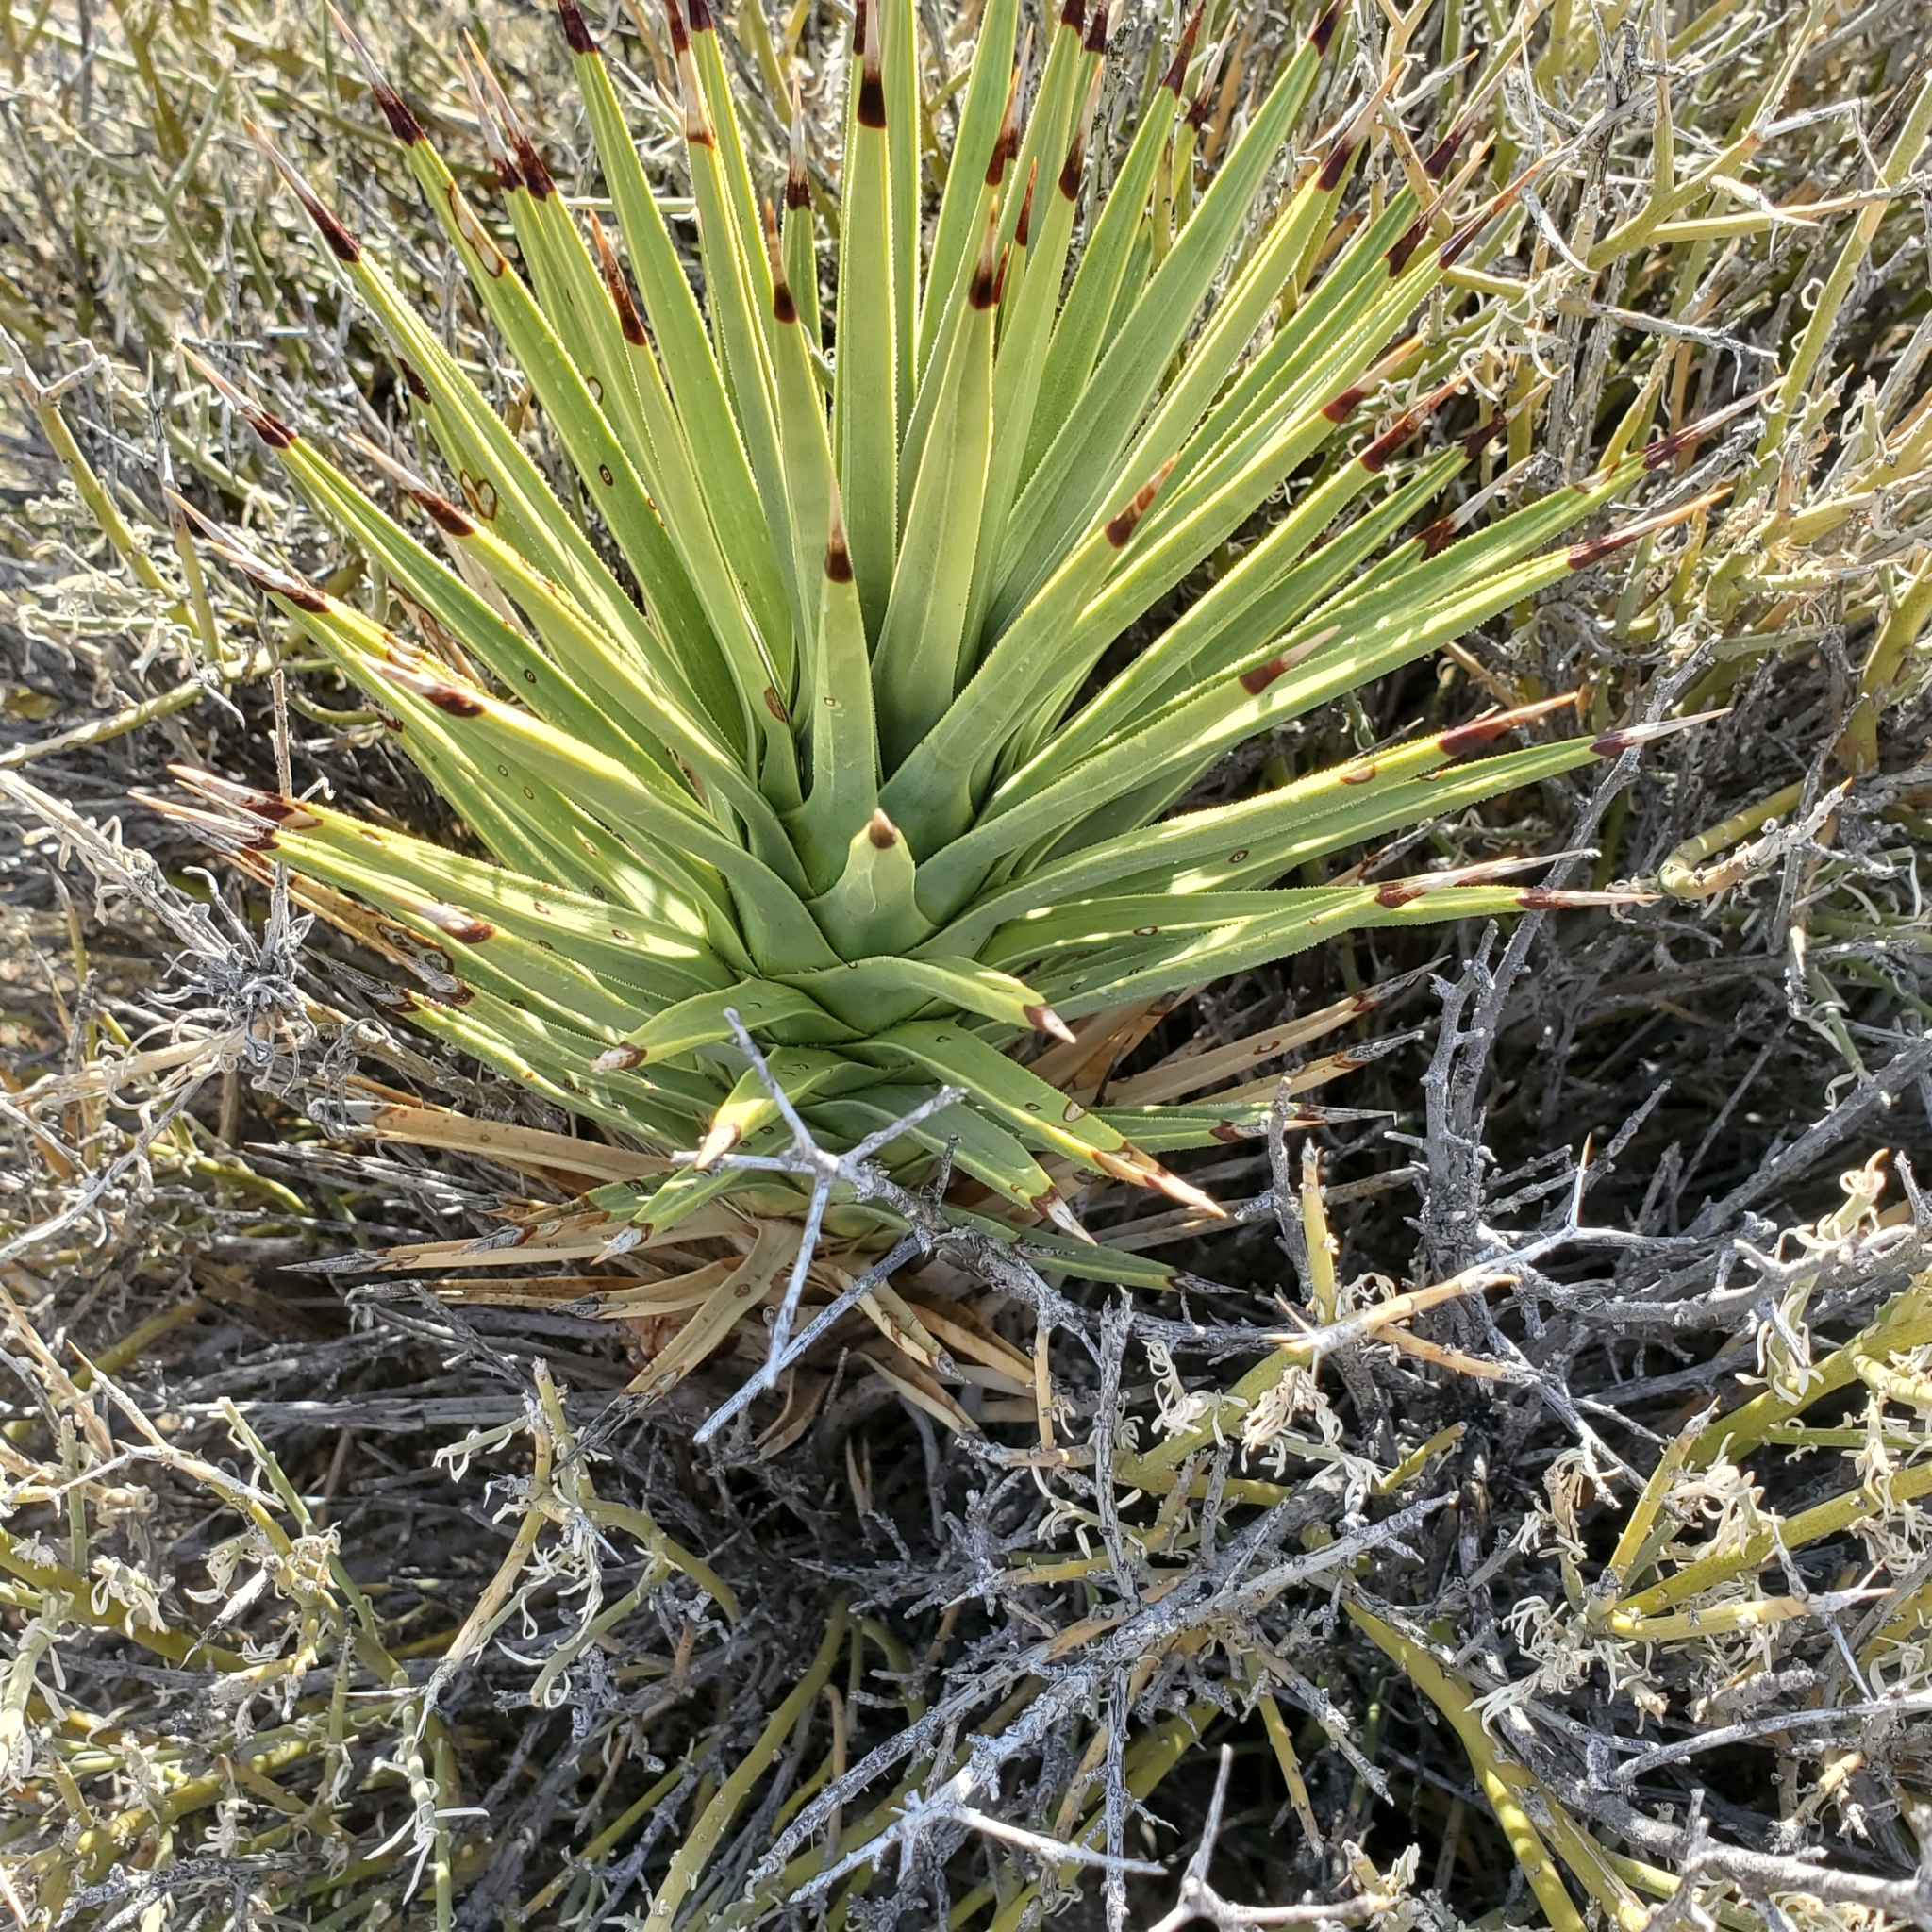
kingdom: Plantae
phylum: Tracheophyta
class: Liliopsida
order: Asparagales
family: Asparagaceae
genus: Yucca
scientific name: Yucca brevifolia
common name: Joshua tree
